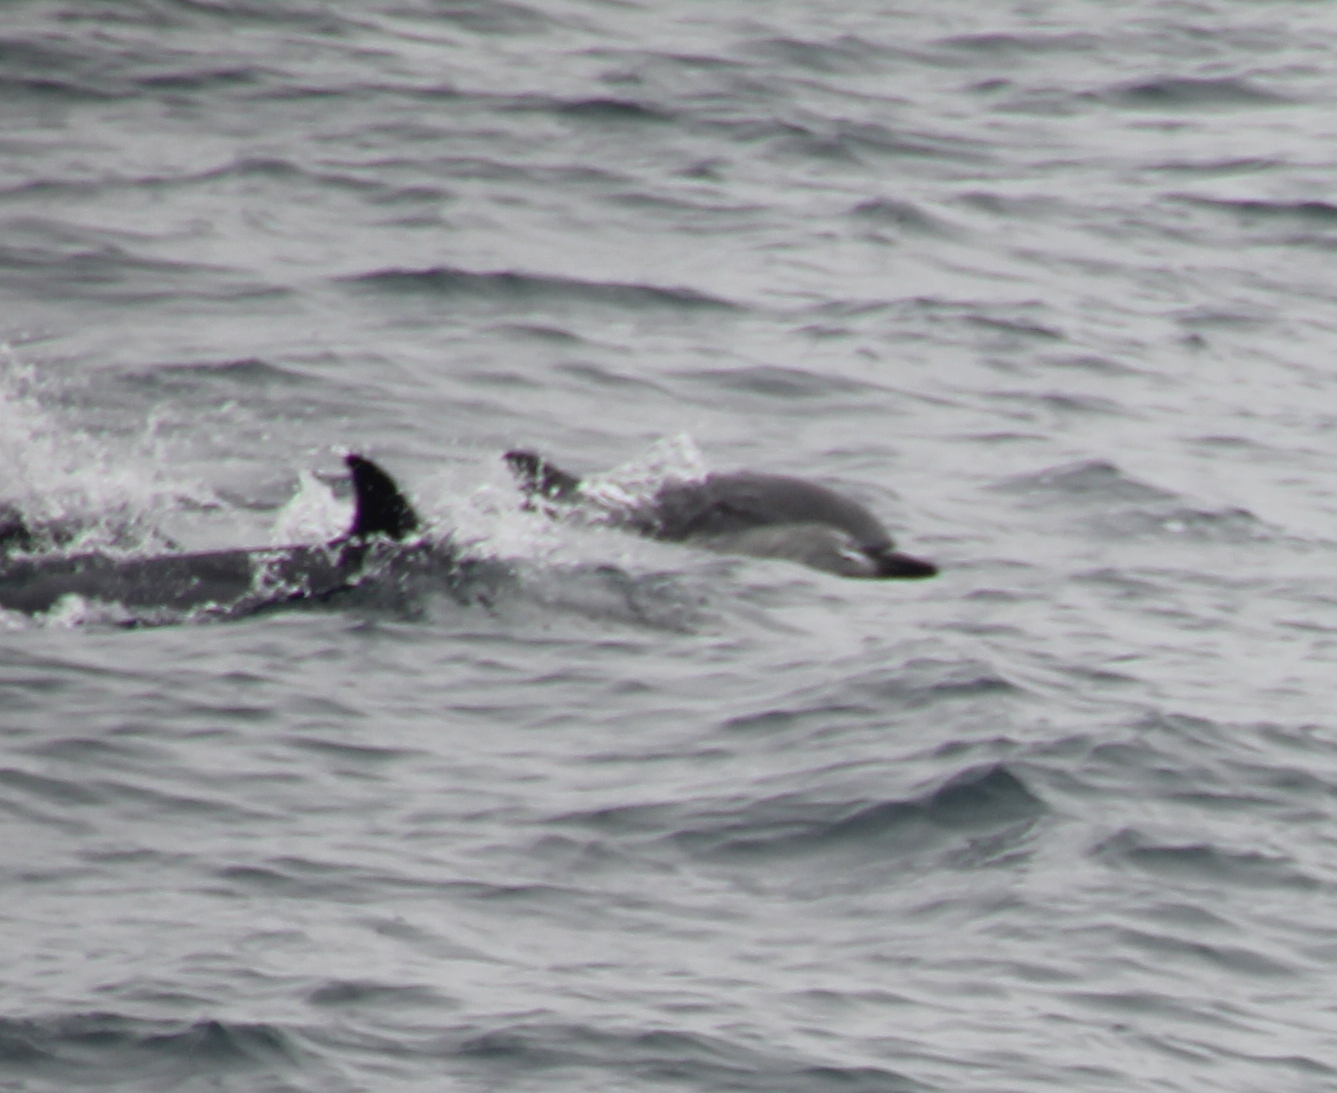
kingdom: Animalia
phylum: Chordata
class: Mammalia
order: Cetacea
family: Delphinidae
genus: Delphinus
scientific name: Delphinus delphis
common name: Common dolphin
